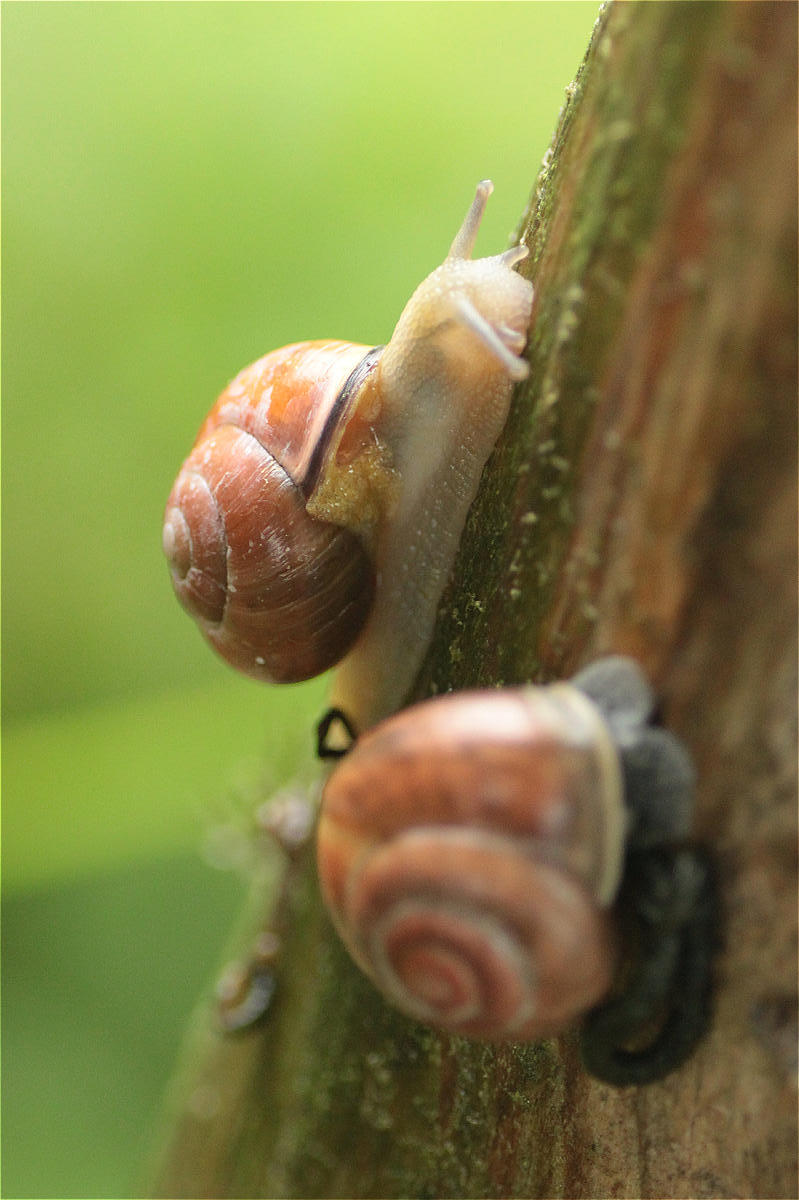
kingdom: Animalia
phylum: Mollusca
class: Gastropoda
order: Stylommatophora
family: Helicidae
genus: Cepaea
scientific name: Cepaea nemoralis
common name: Grovesnail
